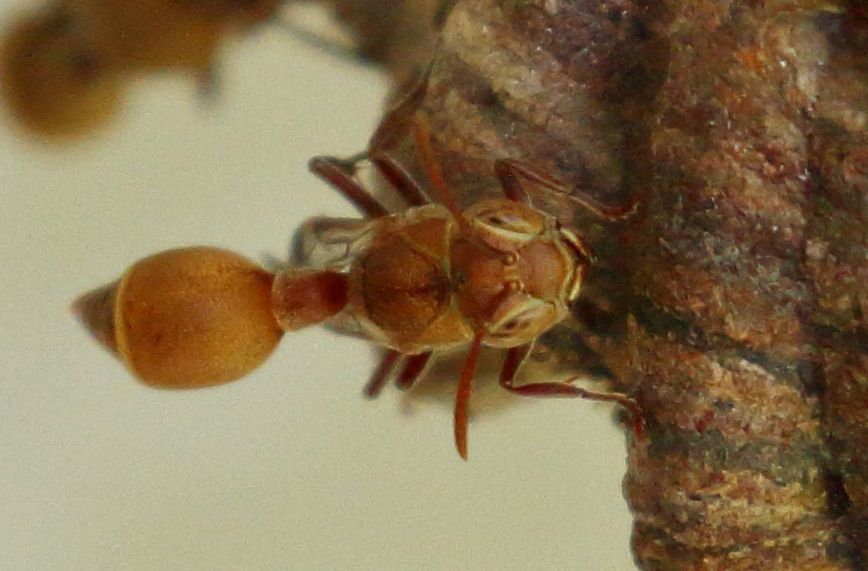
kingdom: Animalia
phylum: Arthropoda
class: Insecta
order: Hymenoptera
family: Vespidae
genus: Ropalidia
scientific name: Ropalidia distigma
